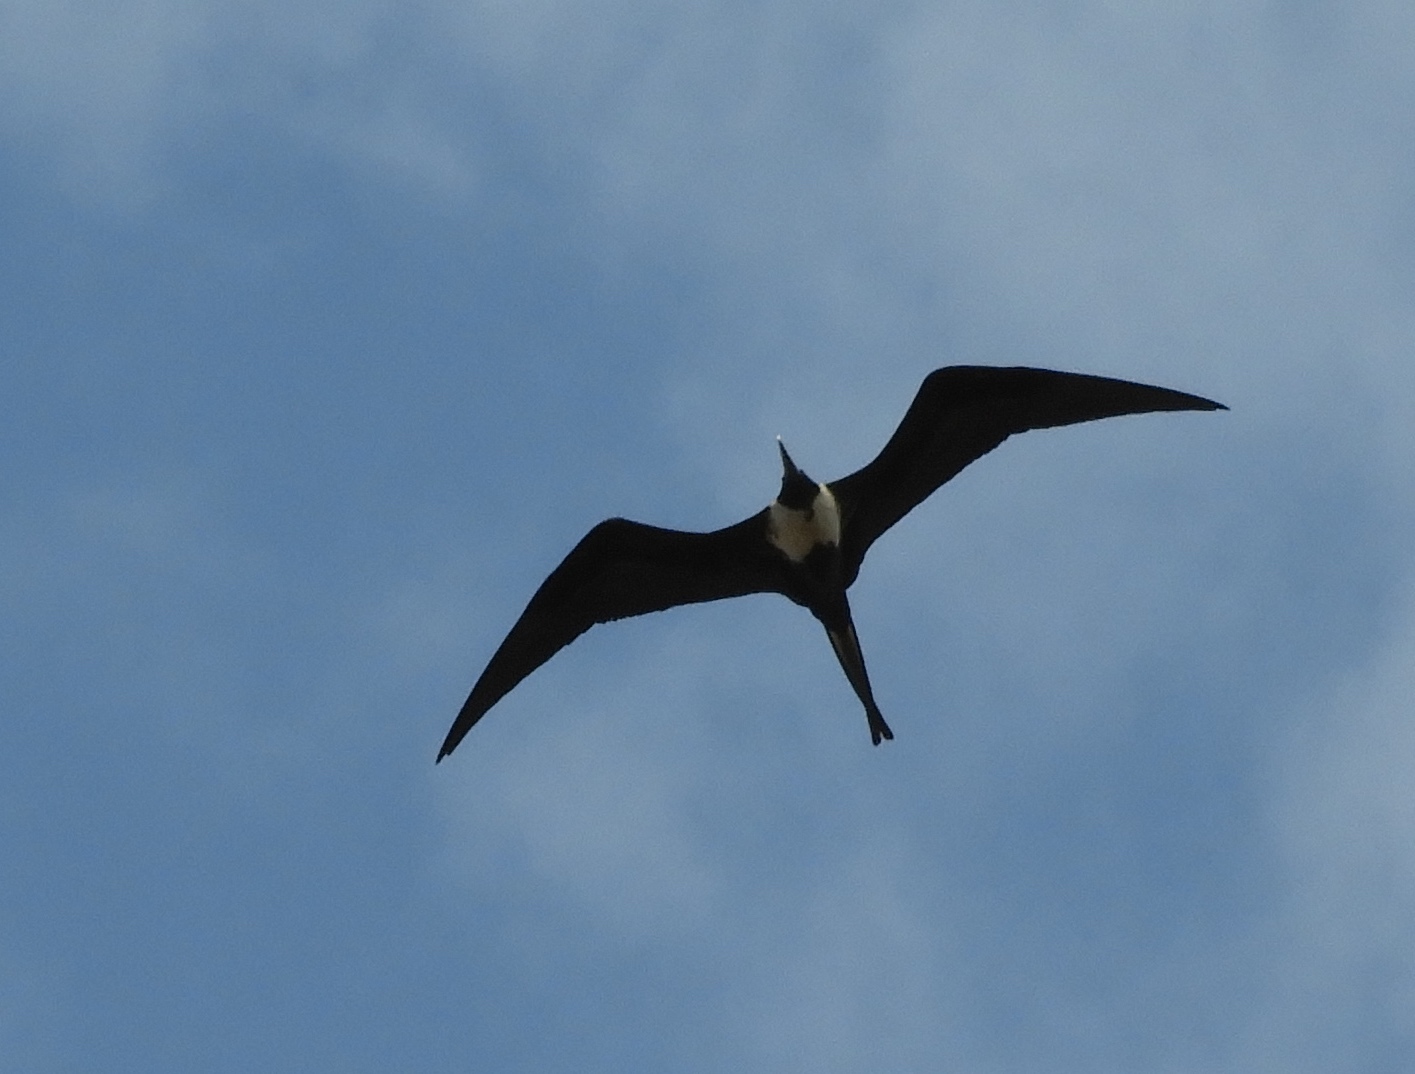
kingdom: Animalia
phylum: Chordata
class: Aves
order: Suliformes
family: Fregatidae
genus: Fregata
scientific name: Fregata magnificens
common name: Magnificent frigatebird
